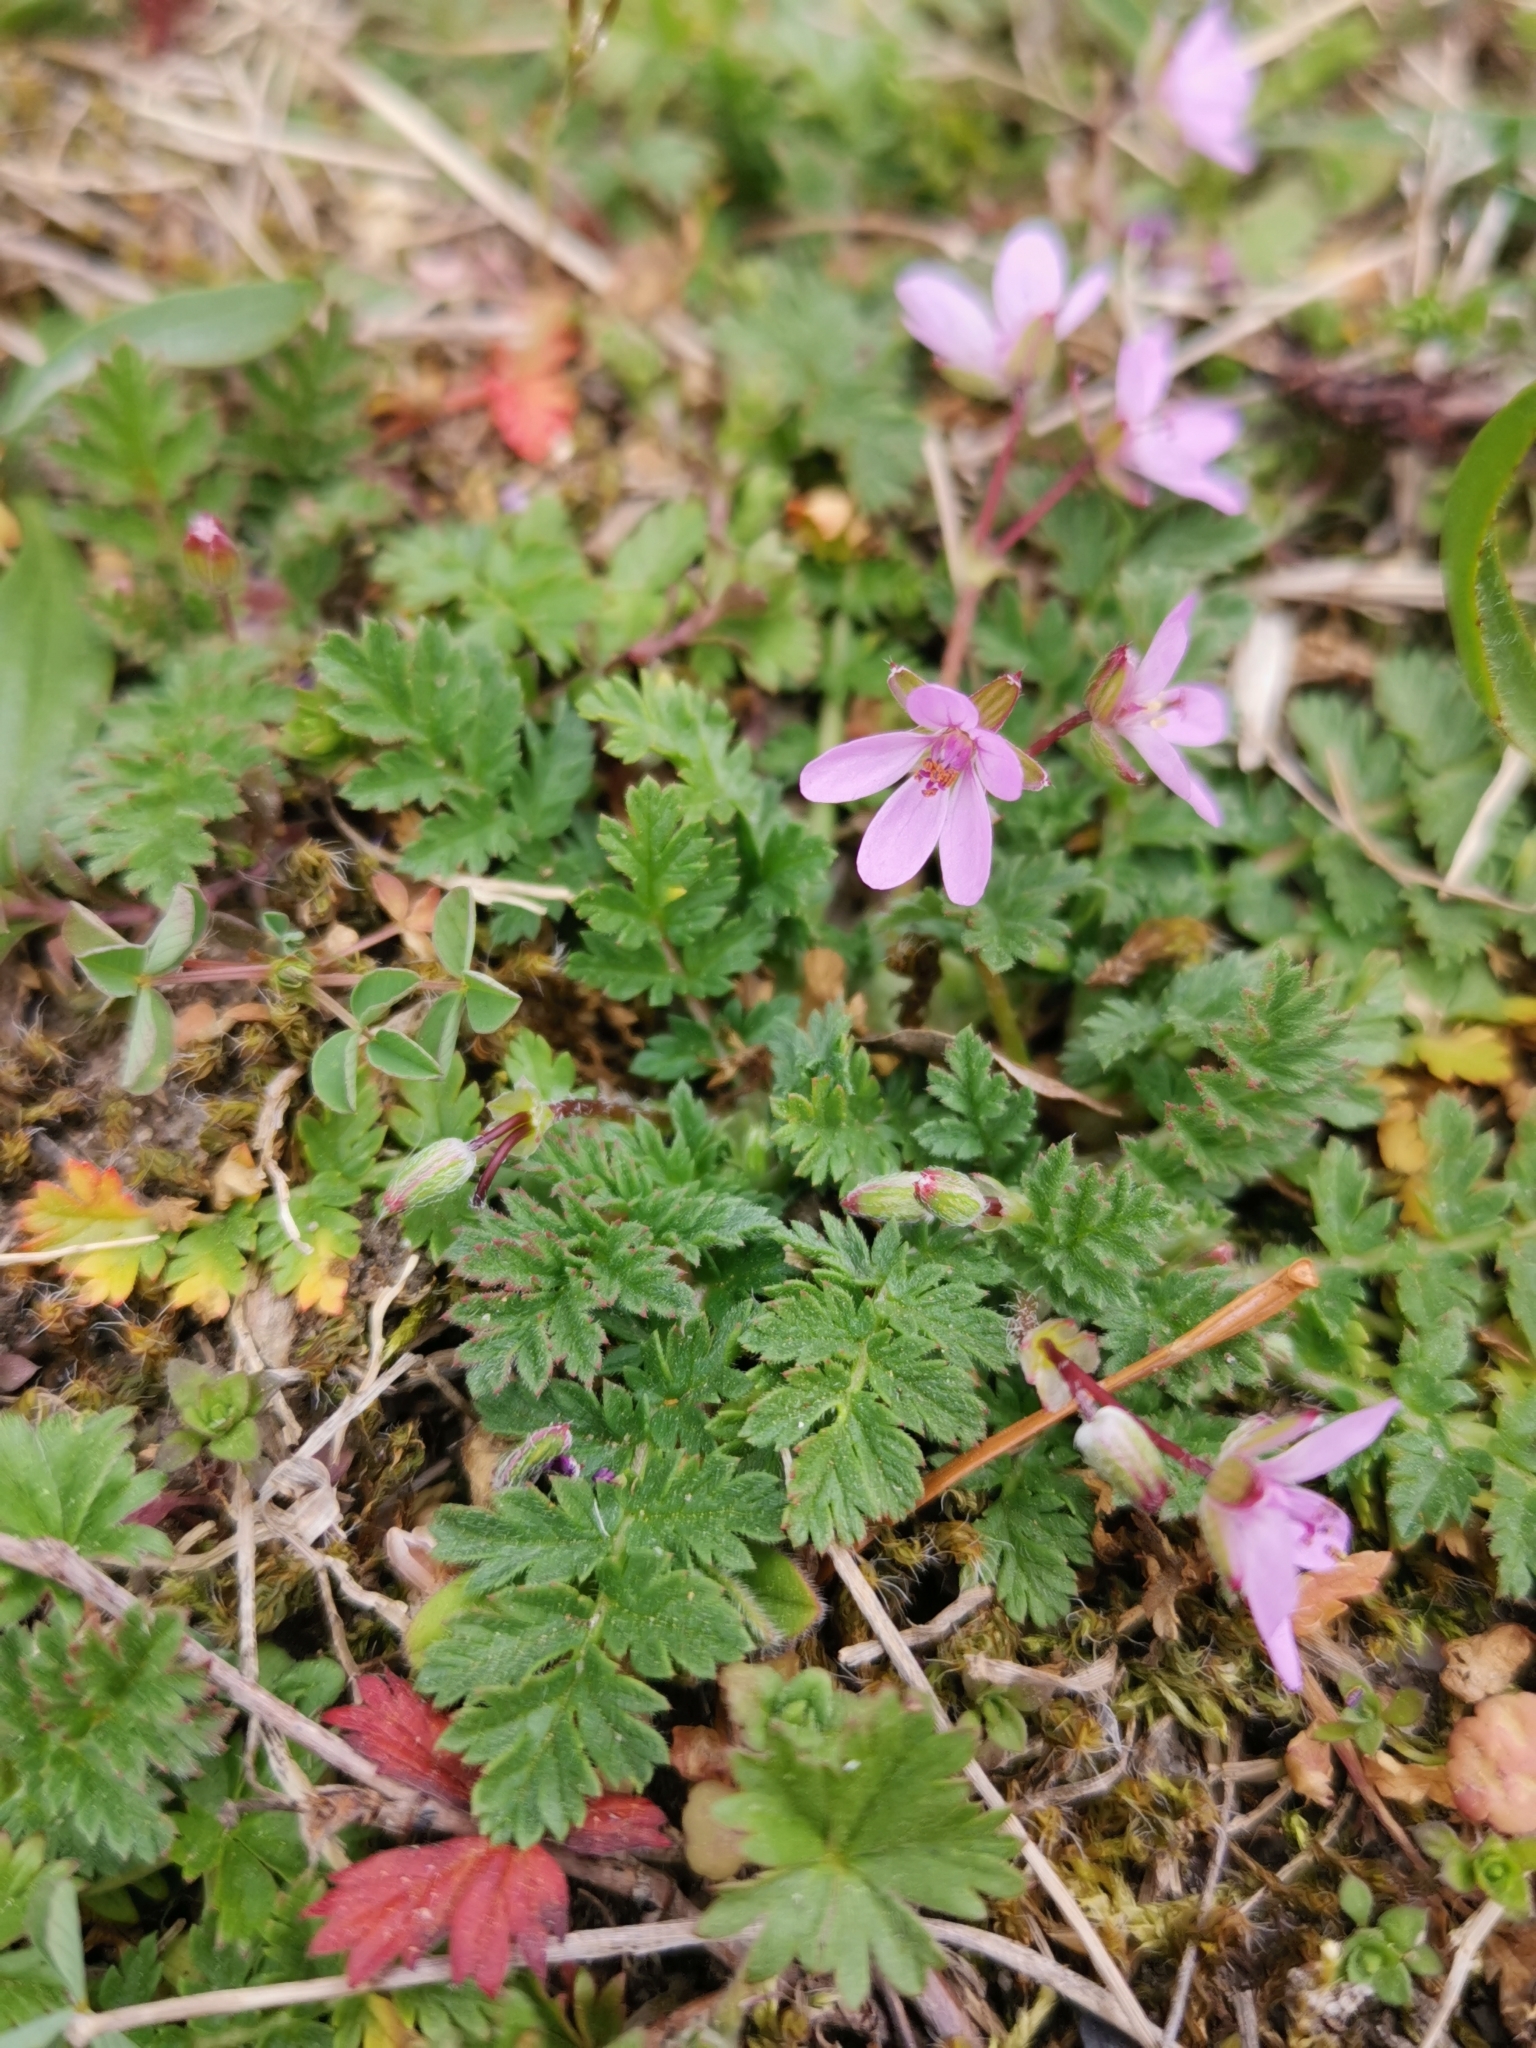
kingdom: Plantae
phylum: Tracheophyta
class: Magnoliopsida
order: Geraniales
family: Geraniaceae
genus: Erodium
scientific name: Erodium cicutarium
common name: Common stork's-bill
